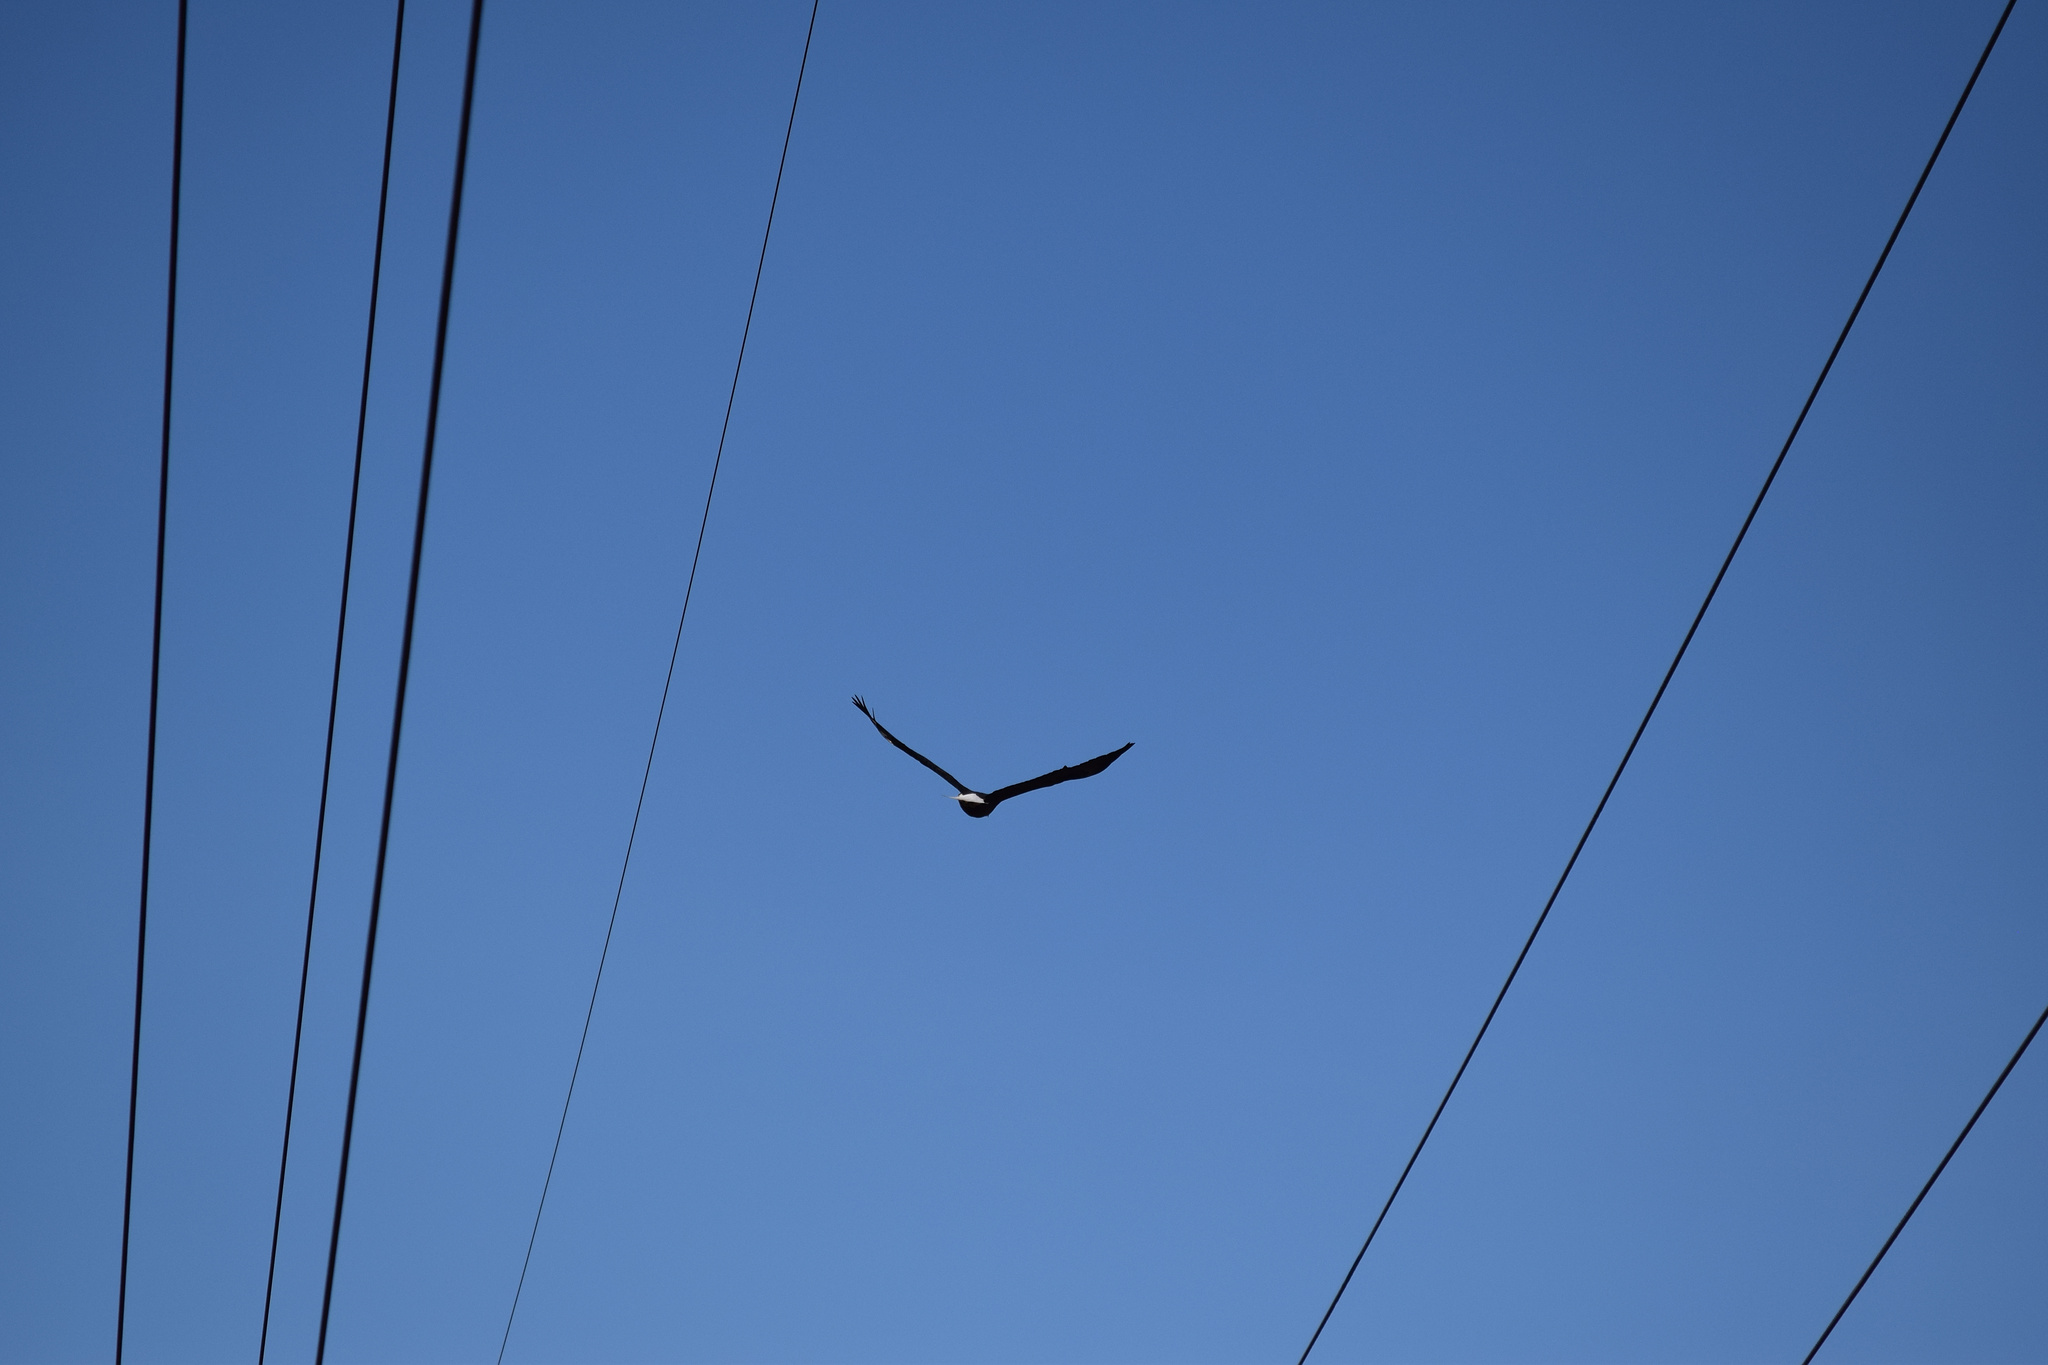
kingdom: Animalia
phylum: Chordata
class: Aves
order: Accipitriformes
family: Accipitridae
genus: Haliaeetus
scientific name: Haliaeetus leucocephalus
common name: Bald eagle
